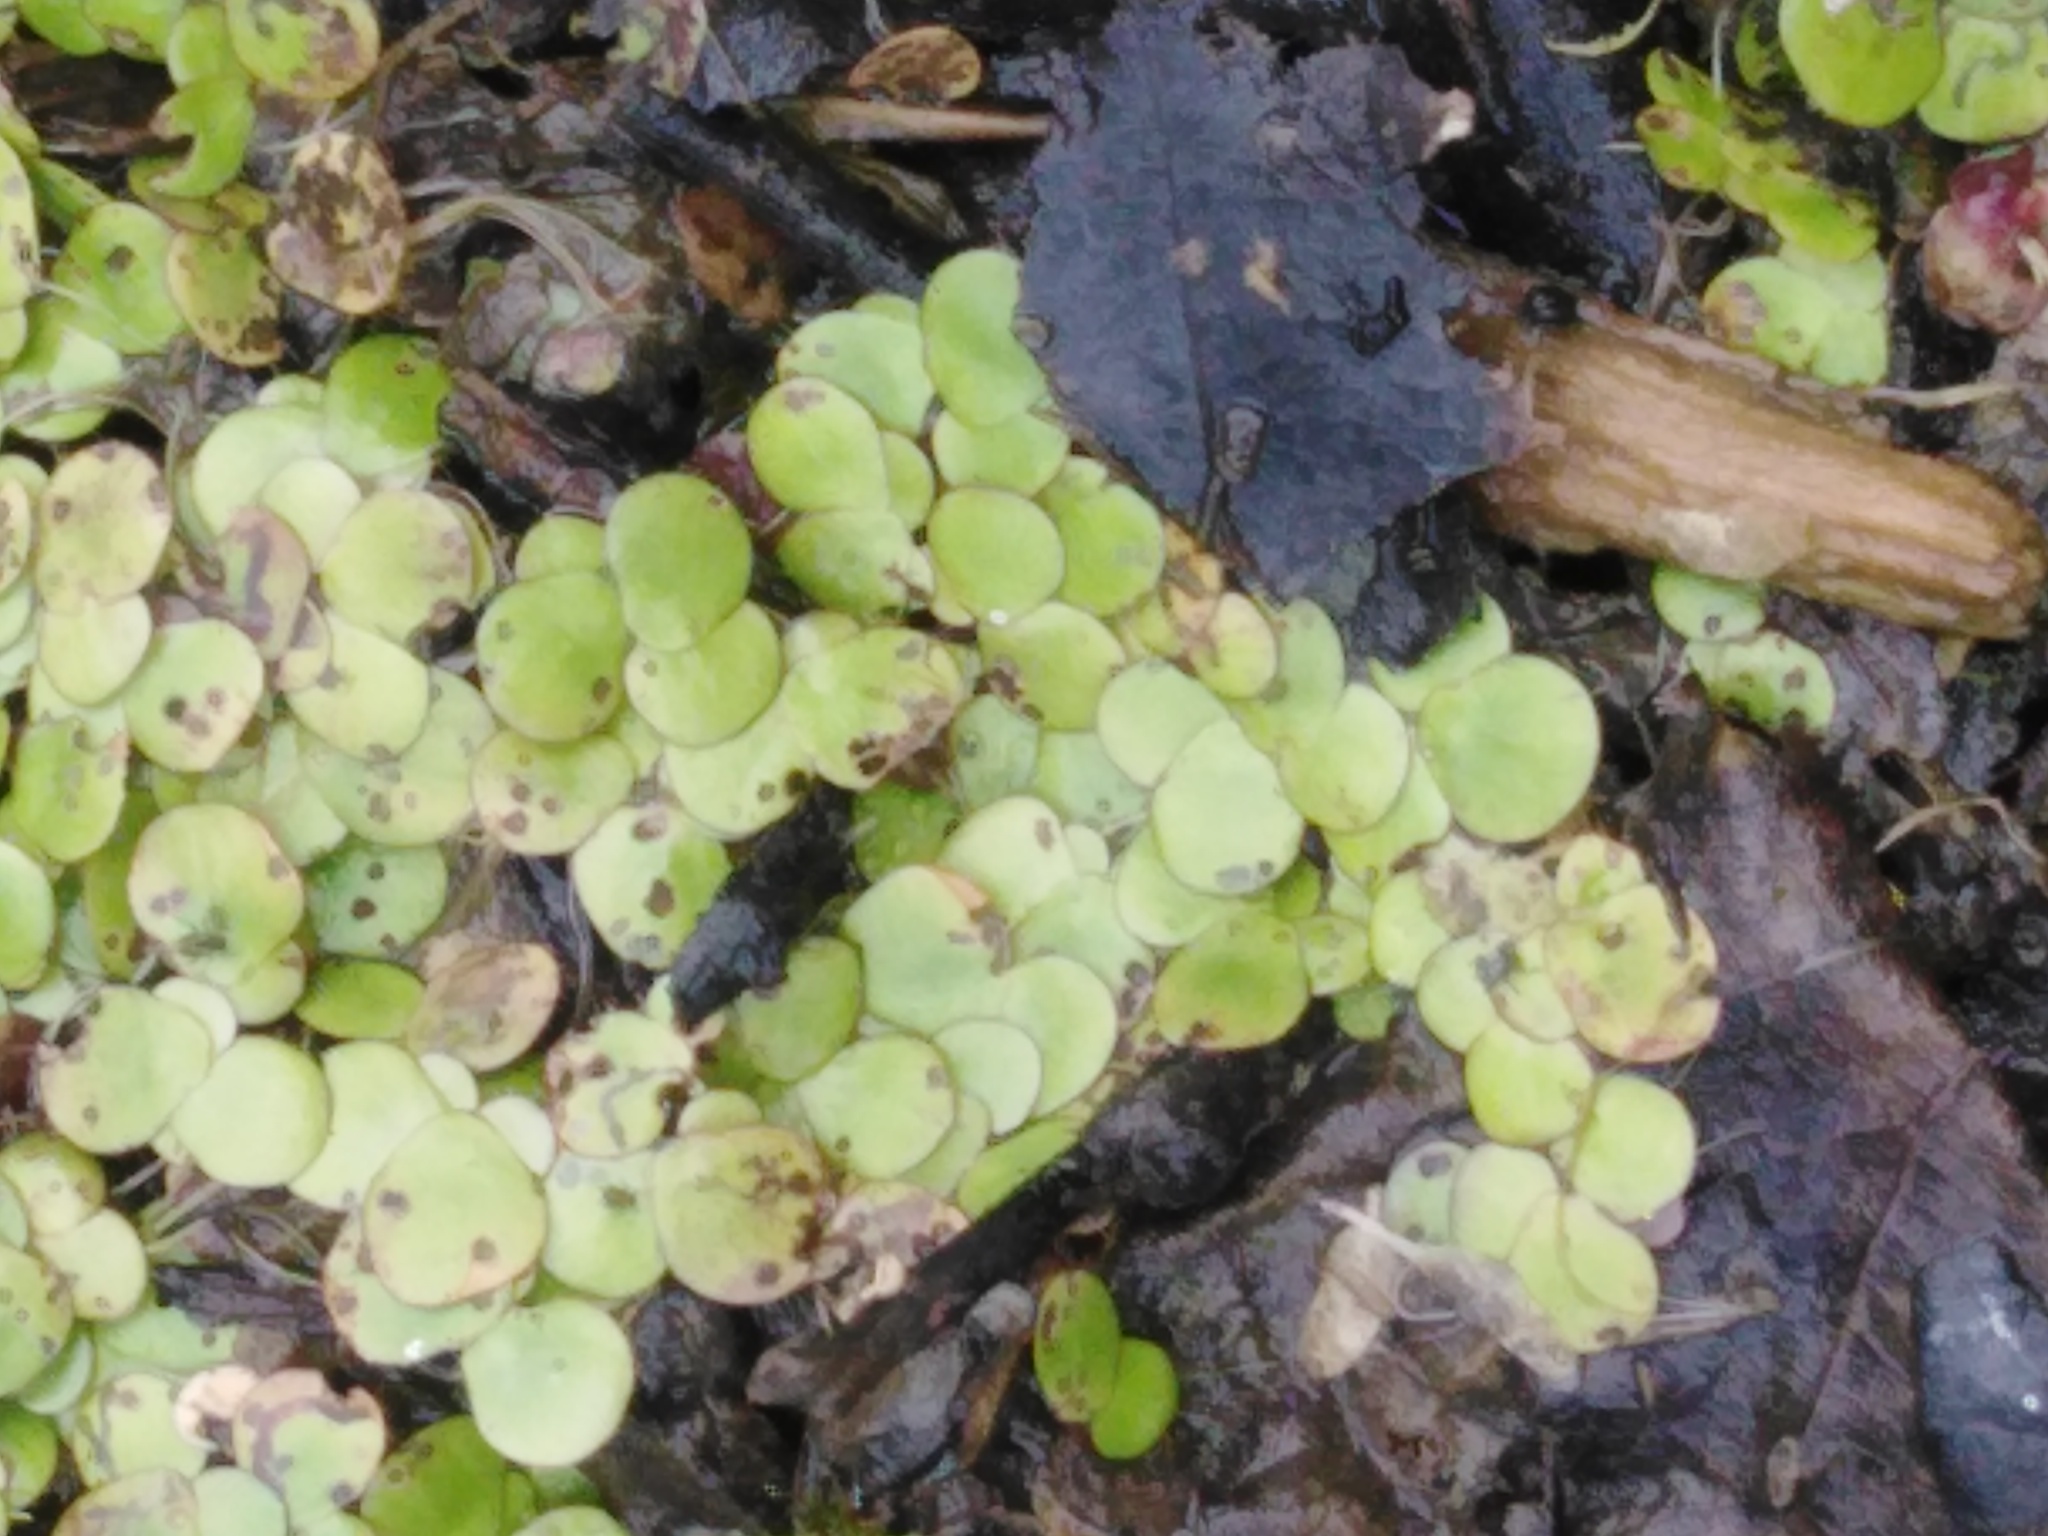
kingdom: Plantae
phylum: Tracheophyta
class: Liliopsida
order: Alismatales
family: Araceae
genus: Spirodela
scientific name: Spirodela polyrhiza
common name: Great duckweed
